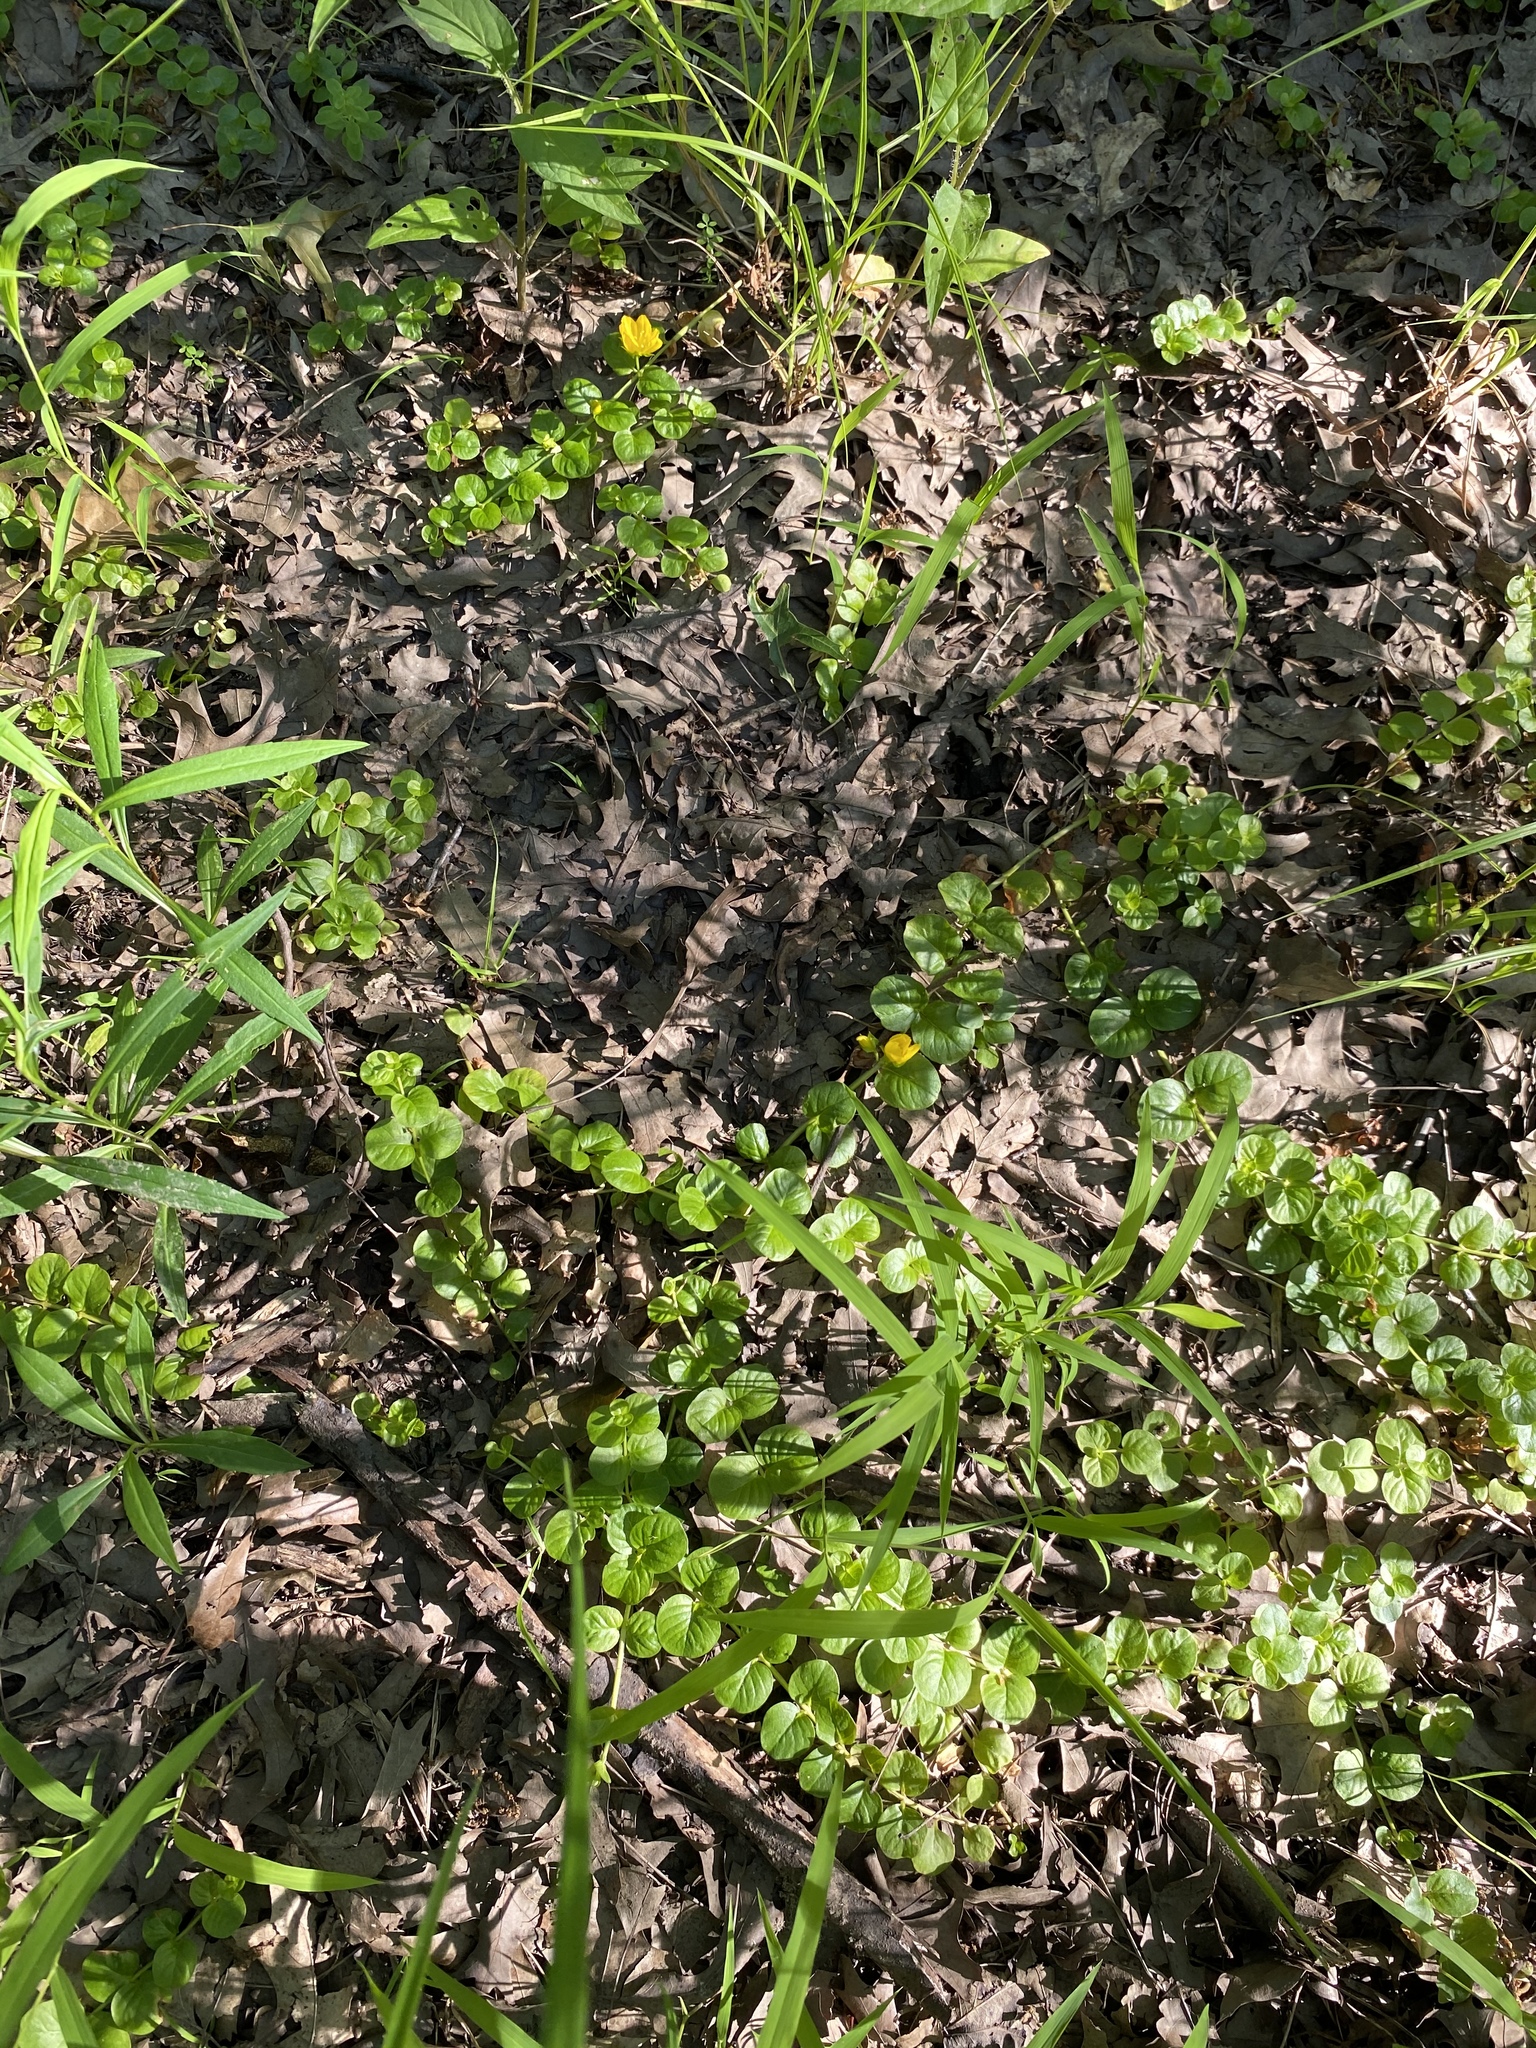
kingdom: Plantae
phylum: Tracheophyta
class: Magnoliopsida
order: Ericales
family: Primulaceae
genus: Lysimachia
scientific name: Lysimachia nummularia
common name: Moneywort
